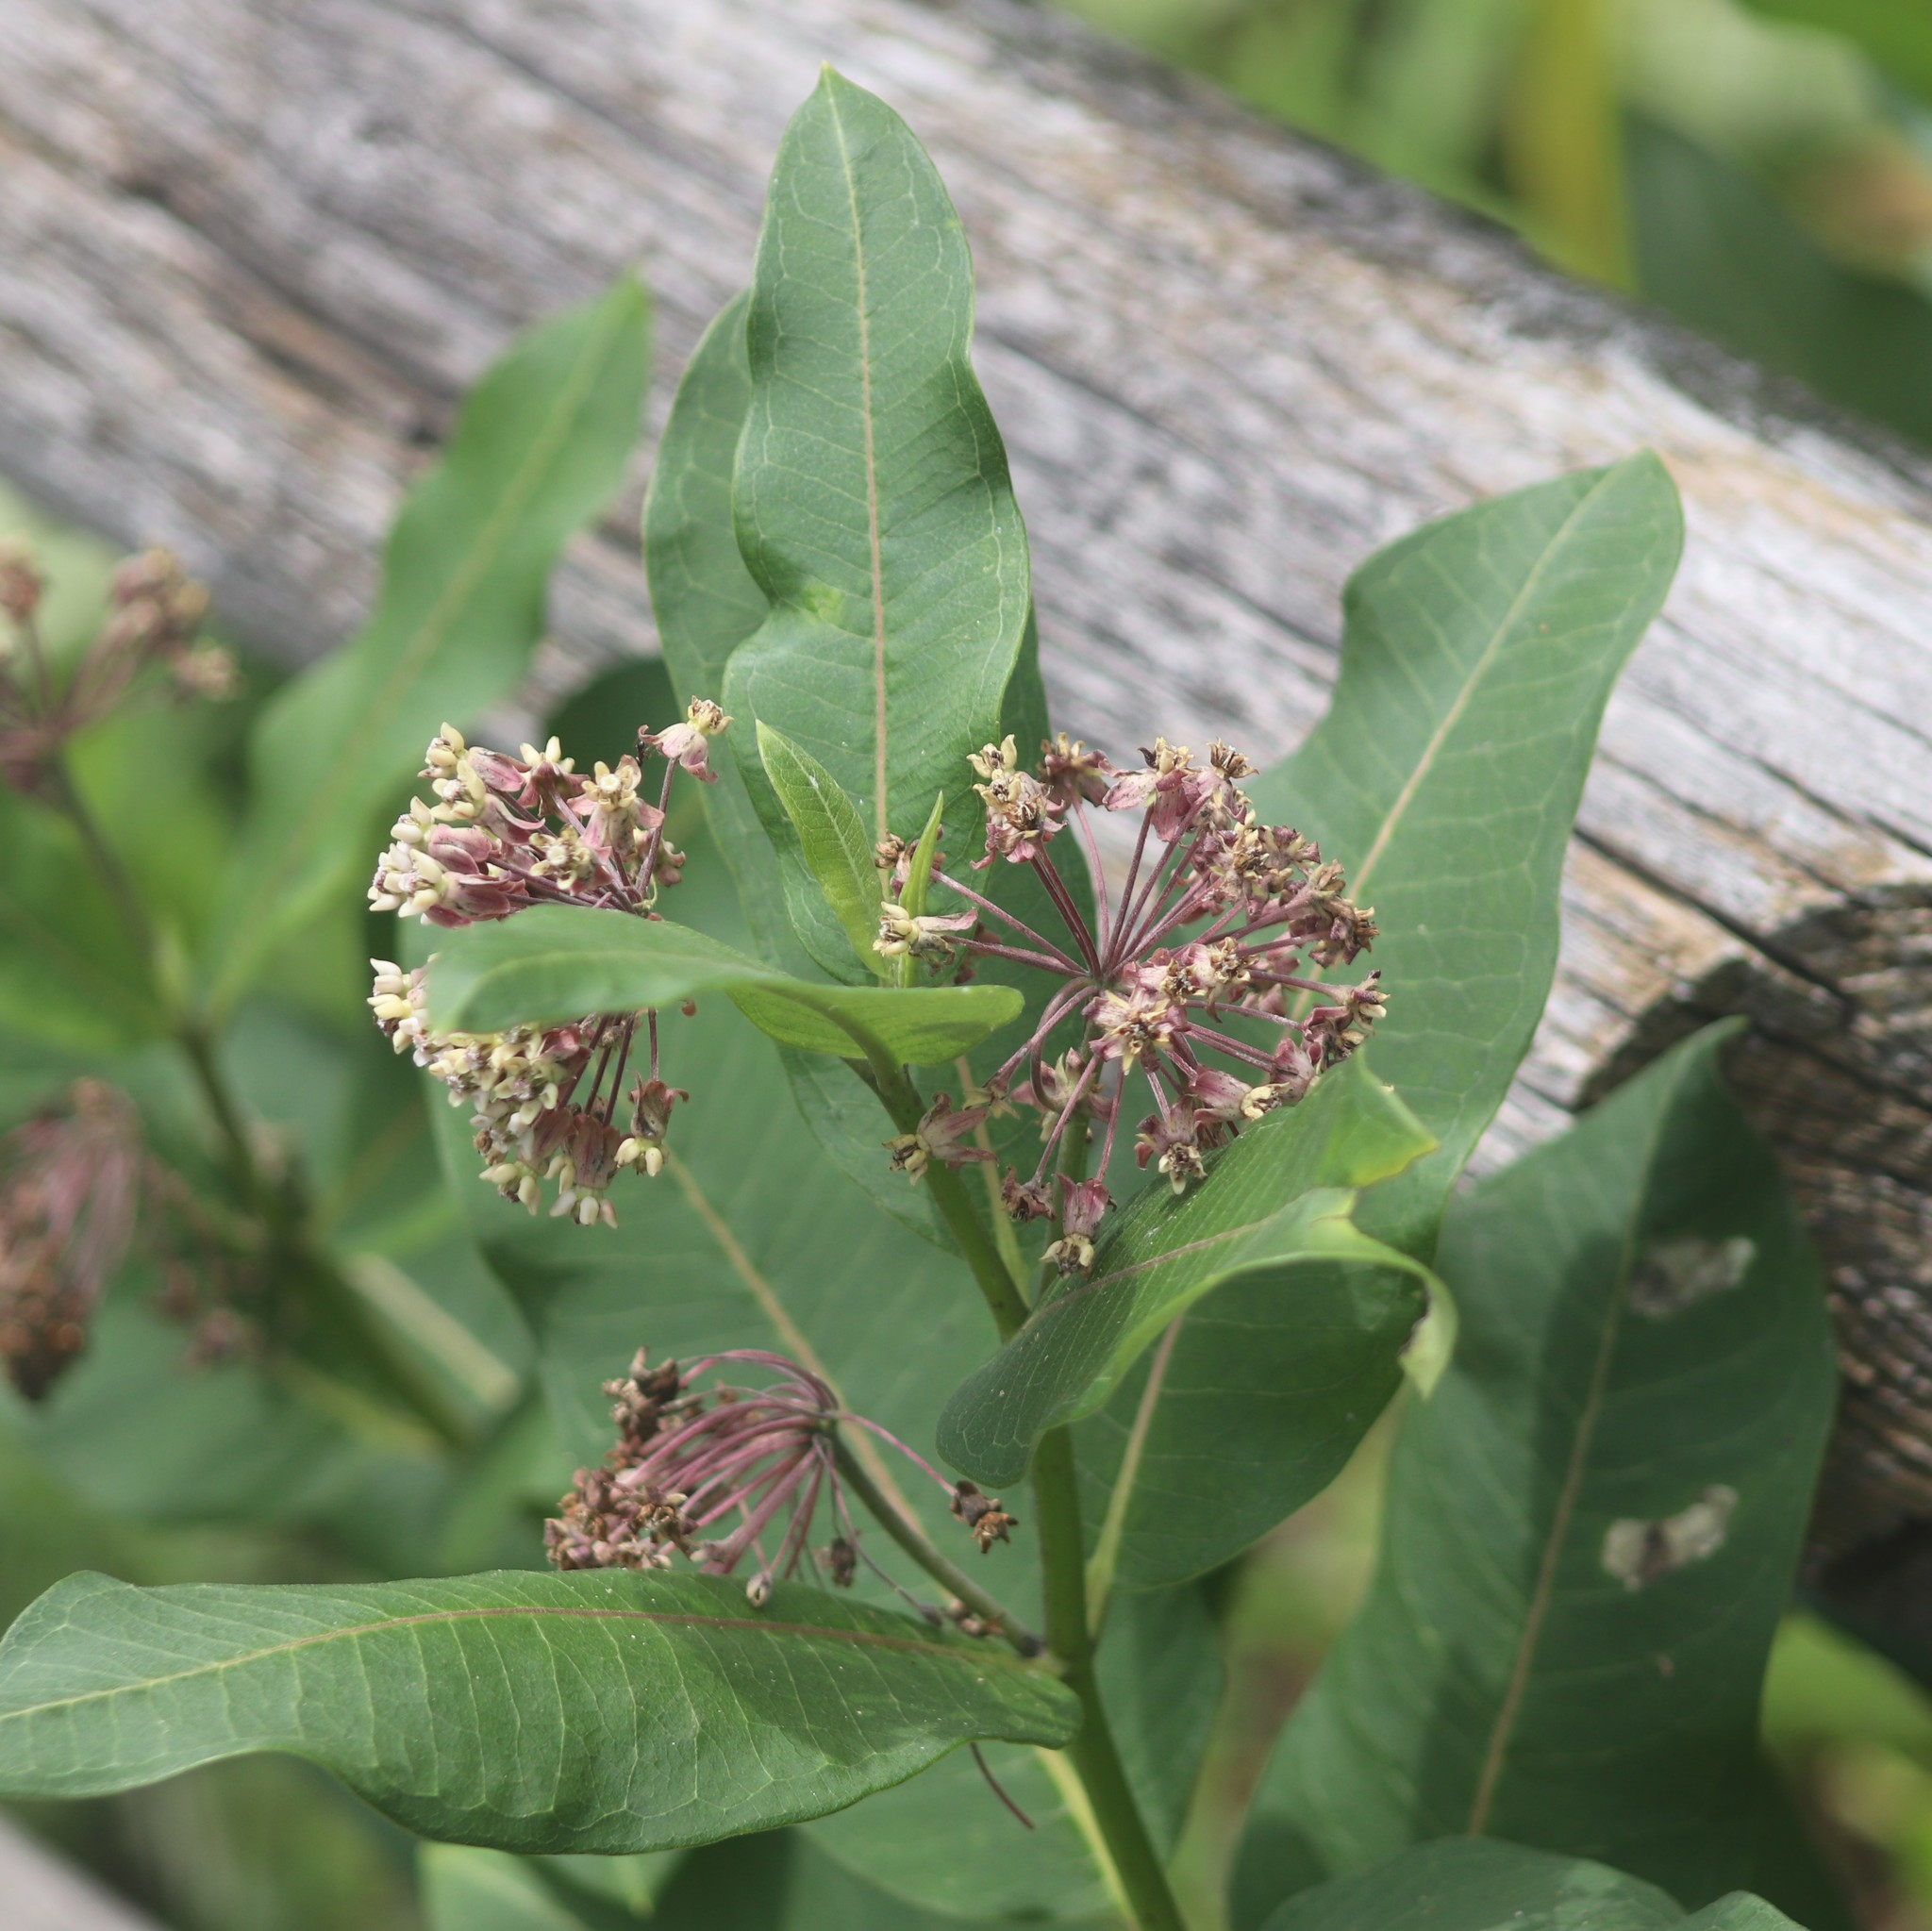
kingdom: Animalia
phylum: Arthropoda
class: Insecta
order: Diptera
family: Agromyzidae
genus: Liriomyza
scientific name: Liriomyza asclepiadis
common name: Milkweed leaf-miner fly
